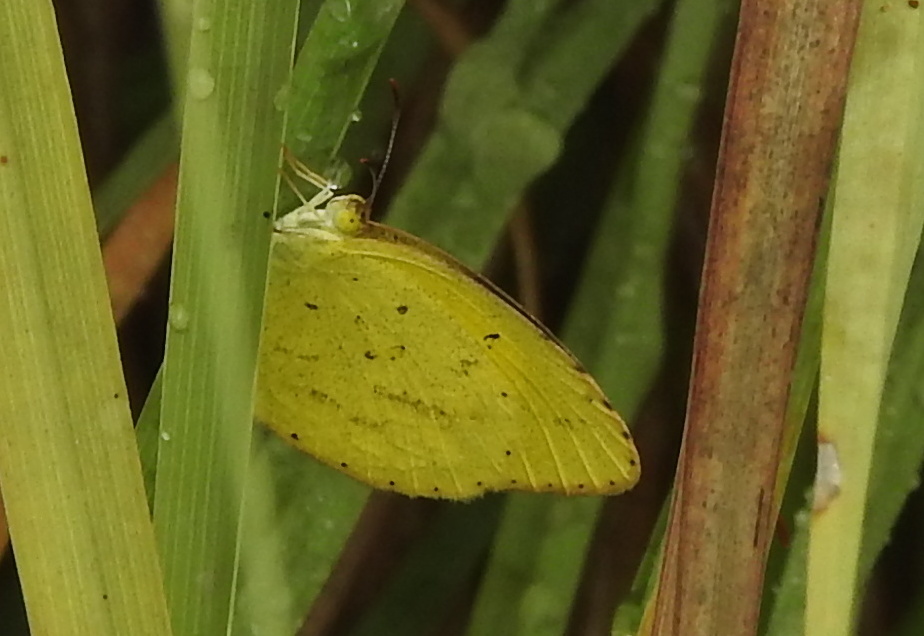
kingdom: Animalia
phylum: Arthropoda
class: Insecta
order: Lepidoptera
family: Pieridae
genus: Eurema
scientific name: Eurema brigitta
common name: Small grass yellow
